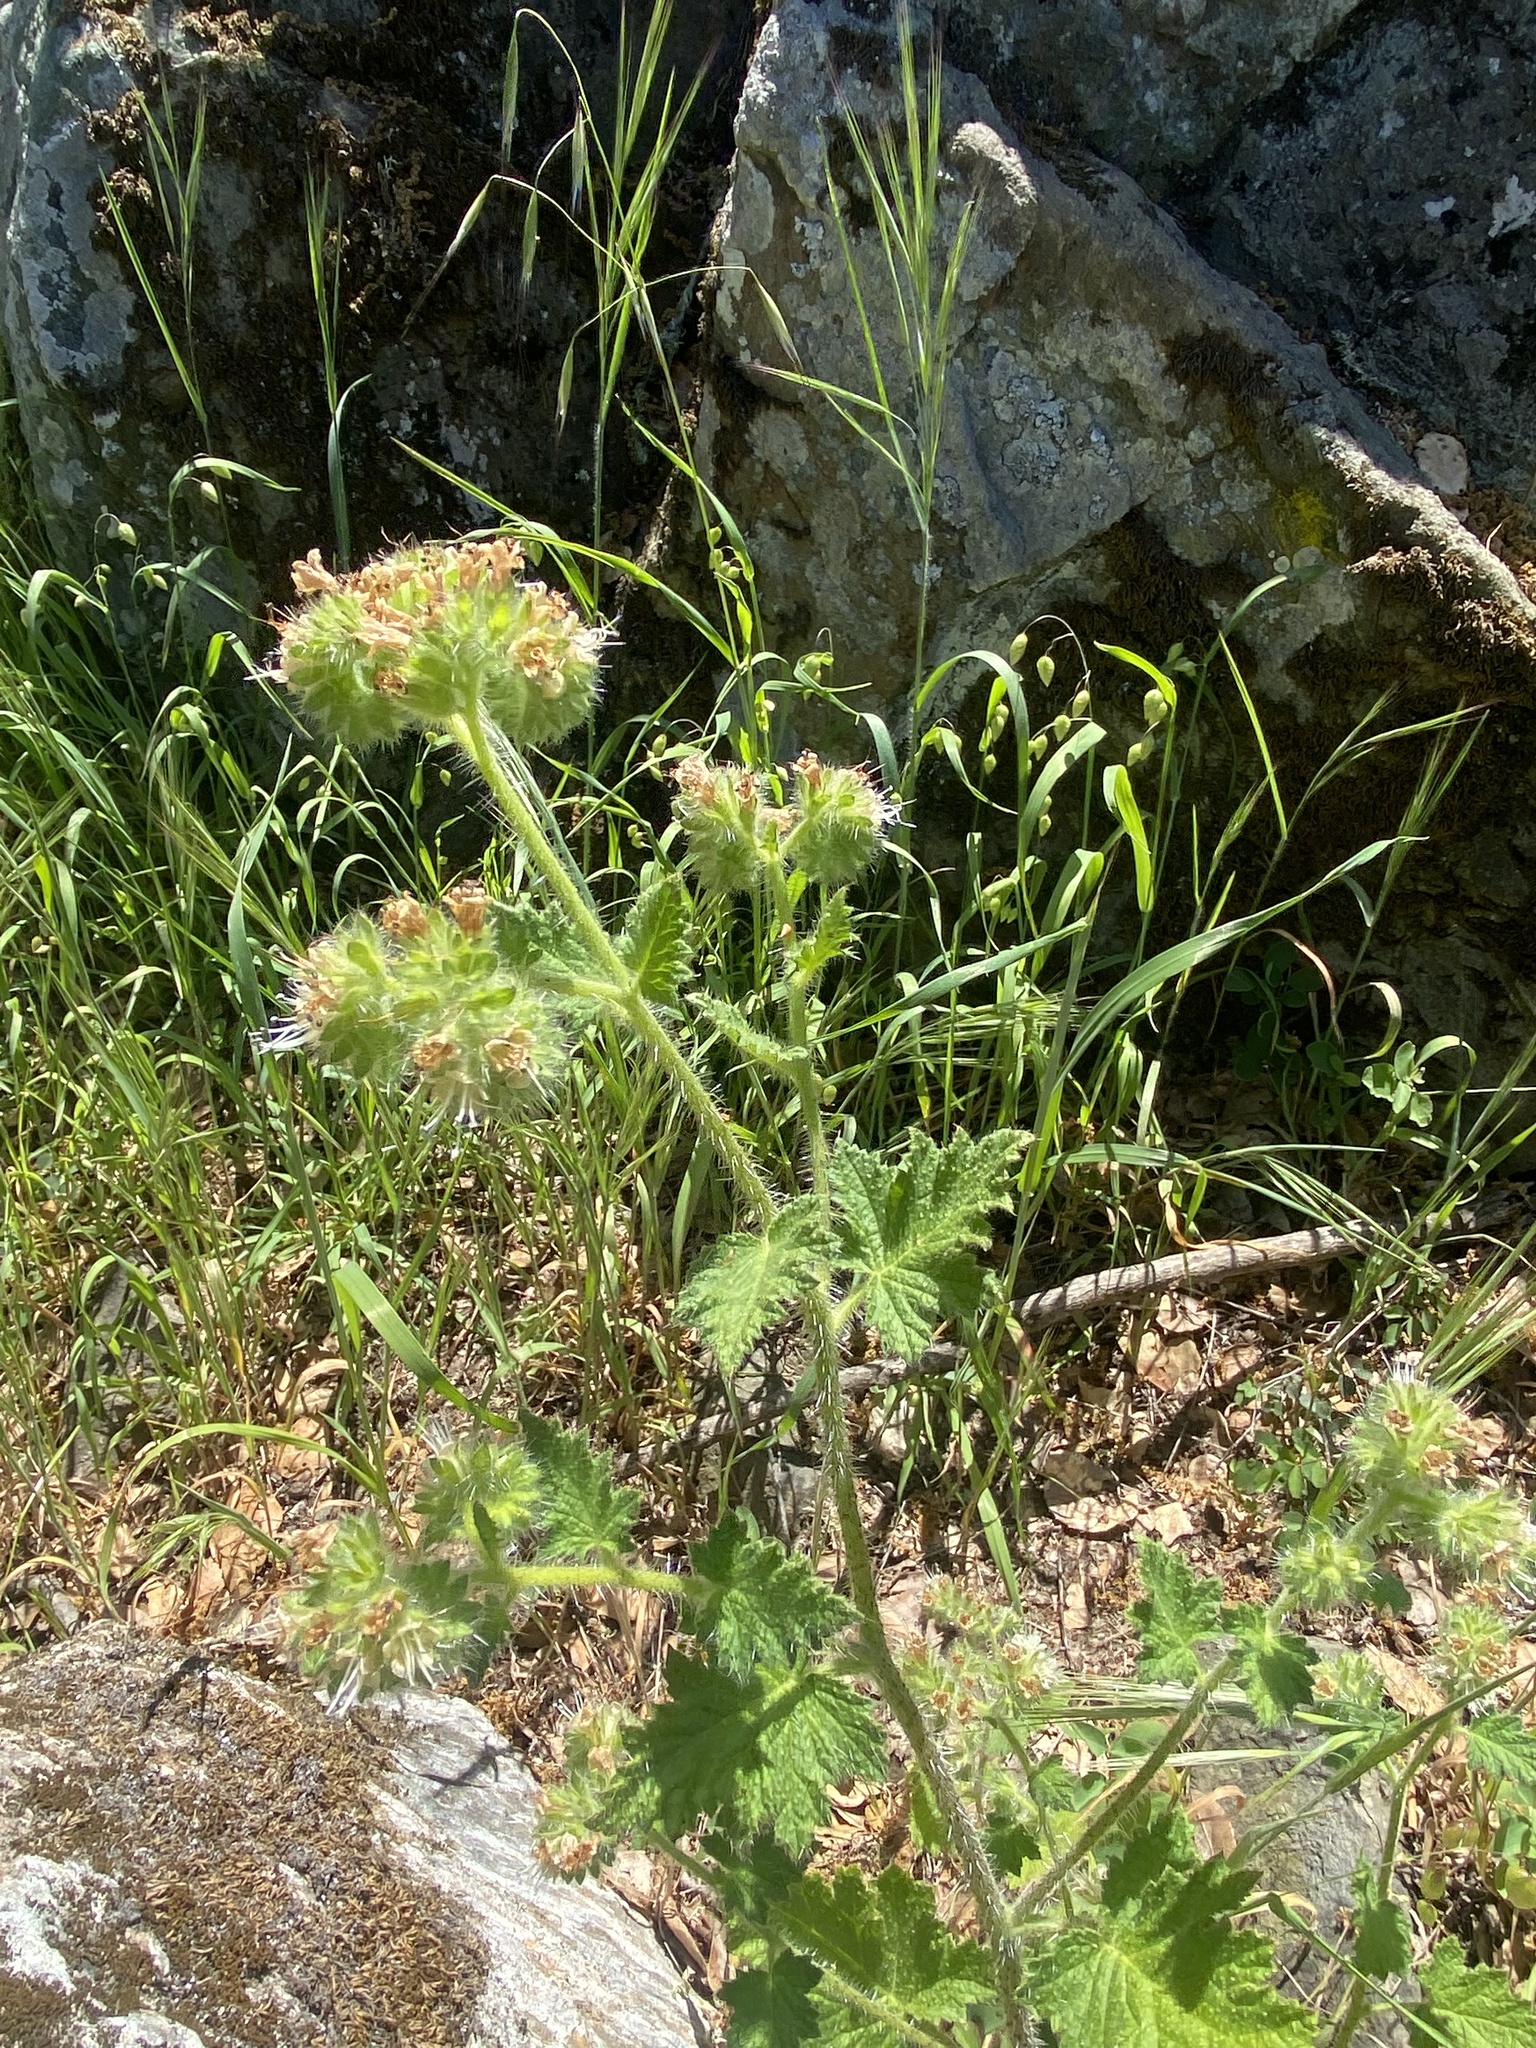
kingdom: Plantae
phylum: Tracheophyta
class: Magnoliopsida
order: Boraginales
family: Hydrophyllaceae
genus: Phacelia
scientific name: Phacelia malvifolia
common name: Mallow-leaf phacelia
